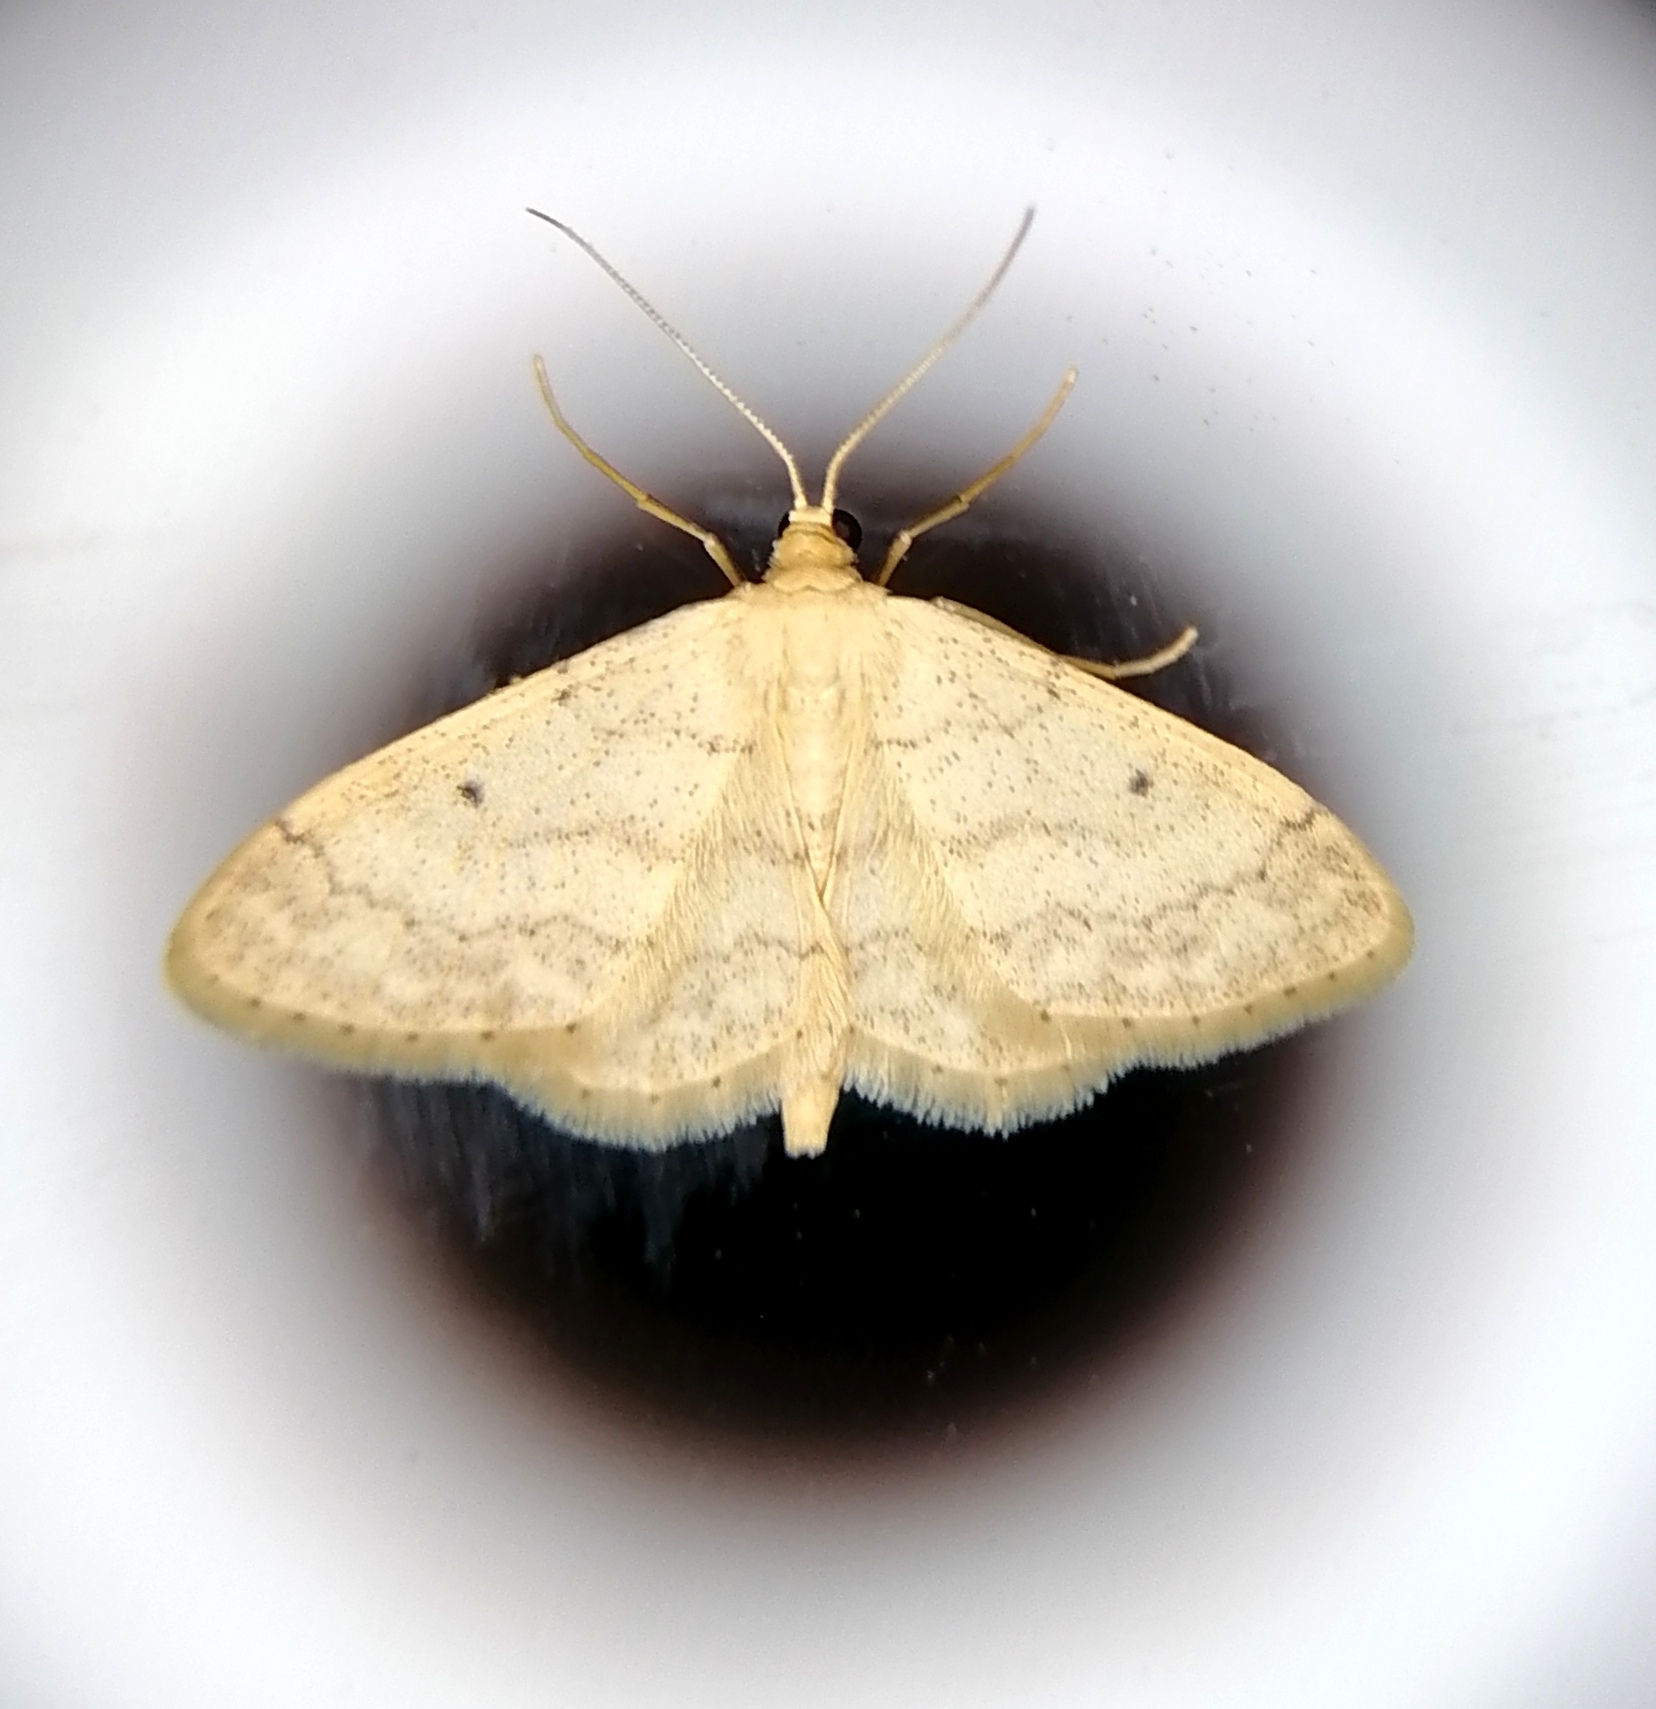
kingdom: Animalia
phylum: Arthropoda
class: Insecta
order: Lepidoptera
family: Geometridae
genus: Idaea
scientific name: Idaea biselata
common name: Small fan-footed wave
